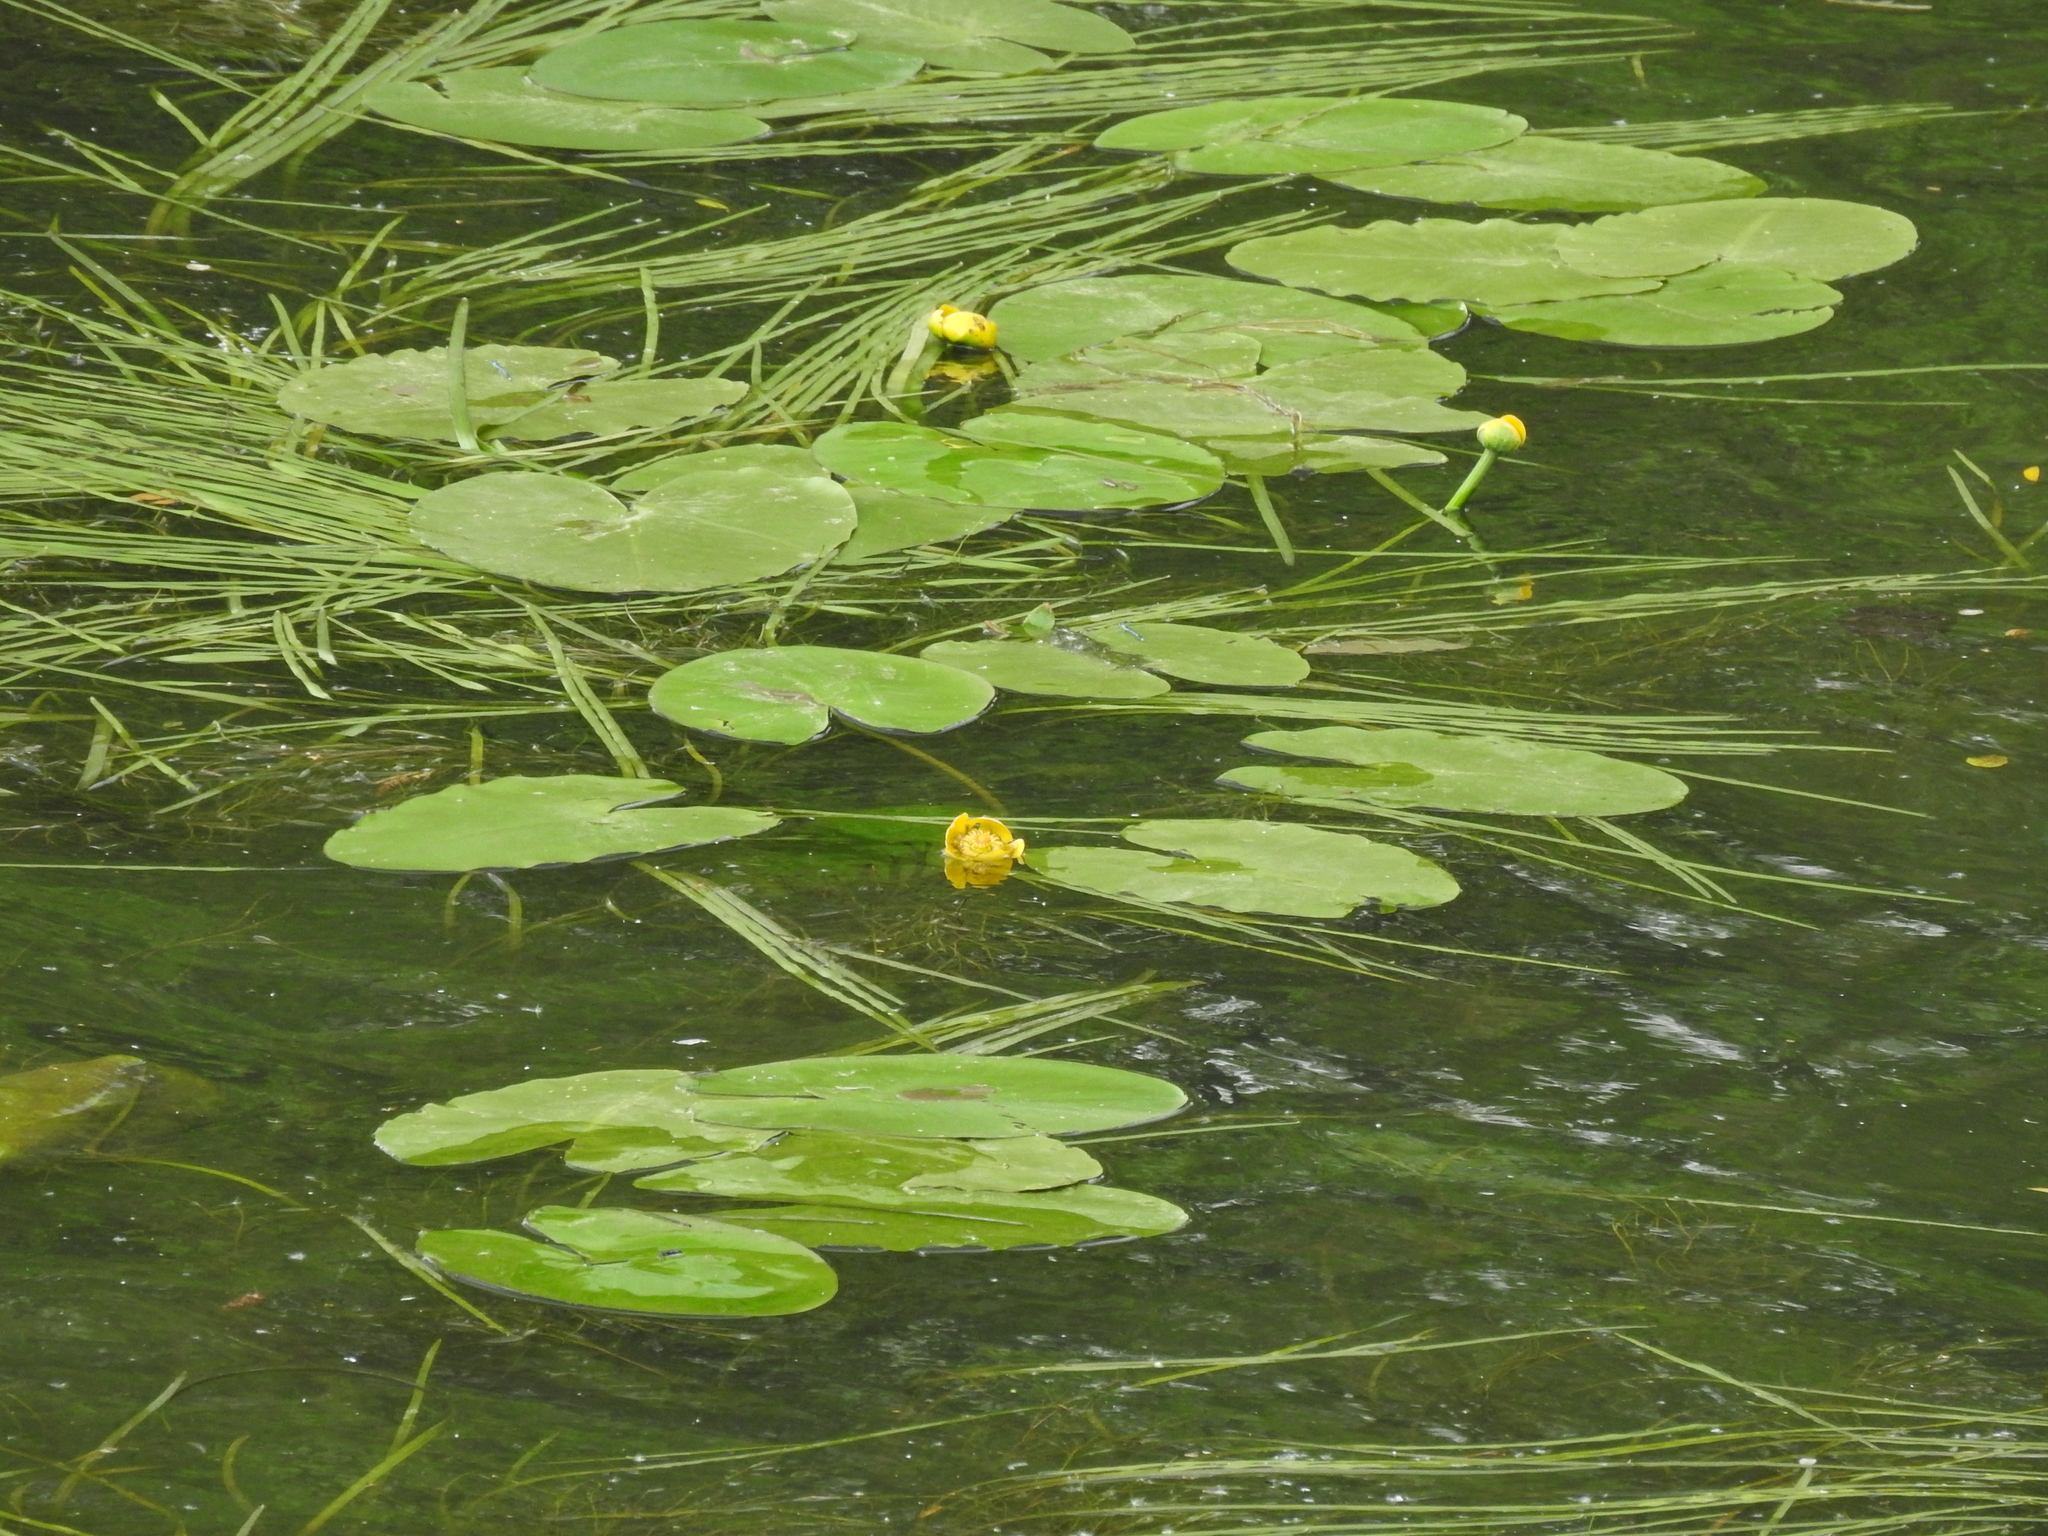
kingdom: Plantae
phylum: Tracheophyta
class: Magnoliopsida
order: Nymphaeales
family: Nymphaeaceae
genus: Nuphar
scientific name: Nuphar lutea
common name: Yellow water-lily
